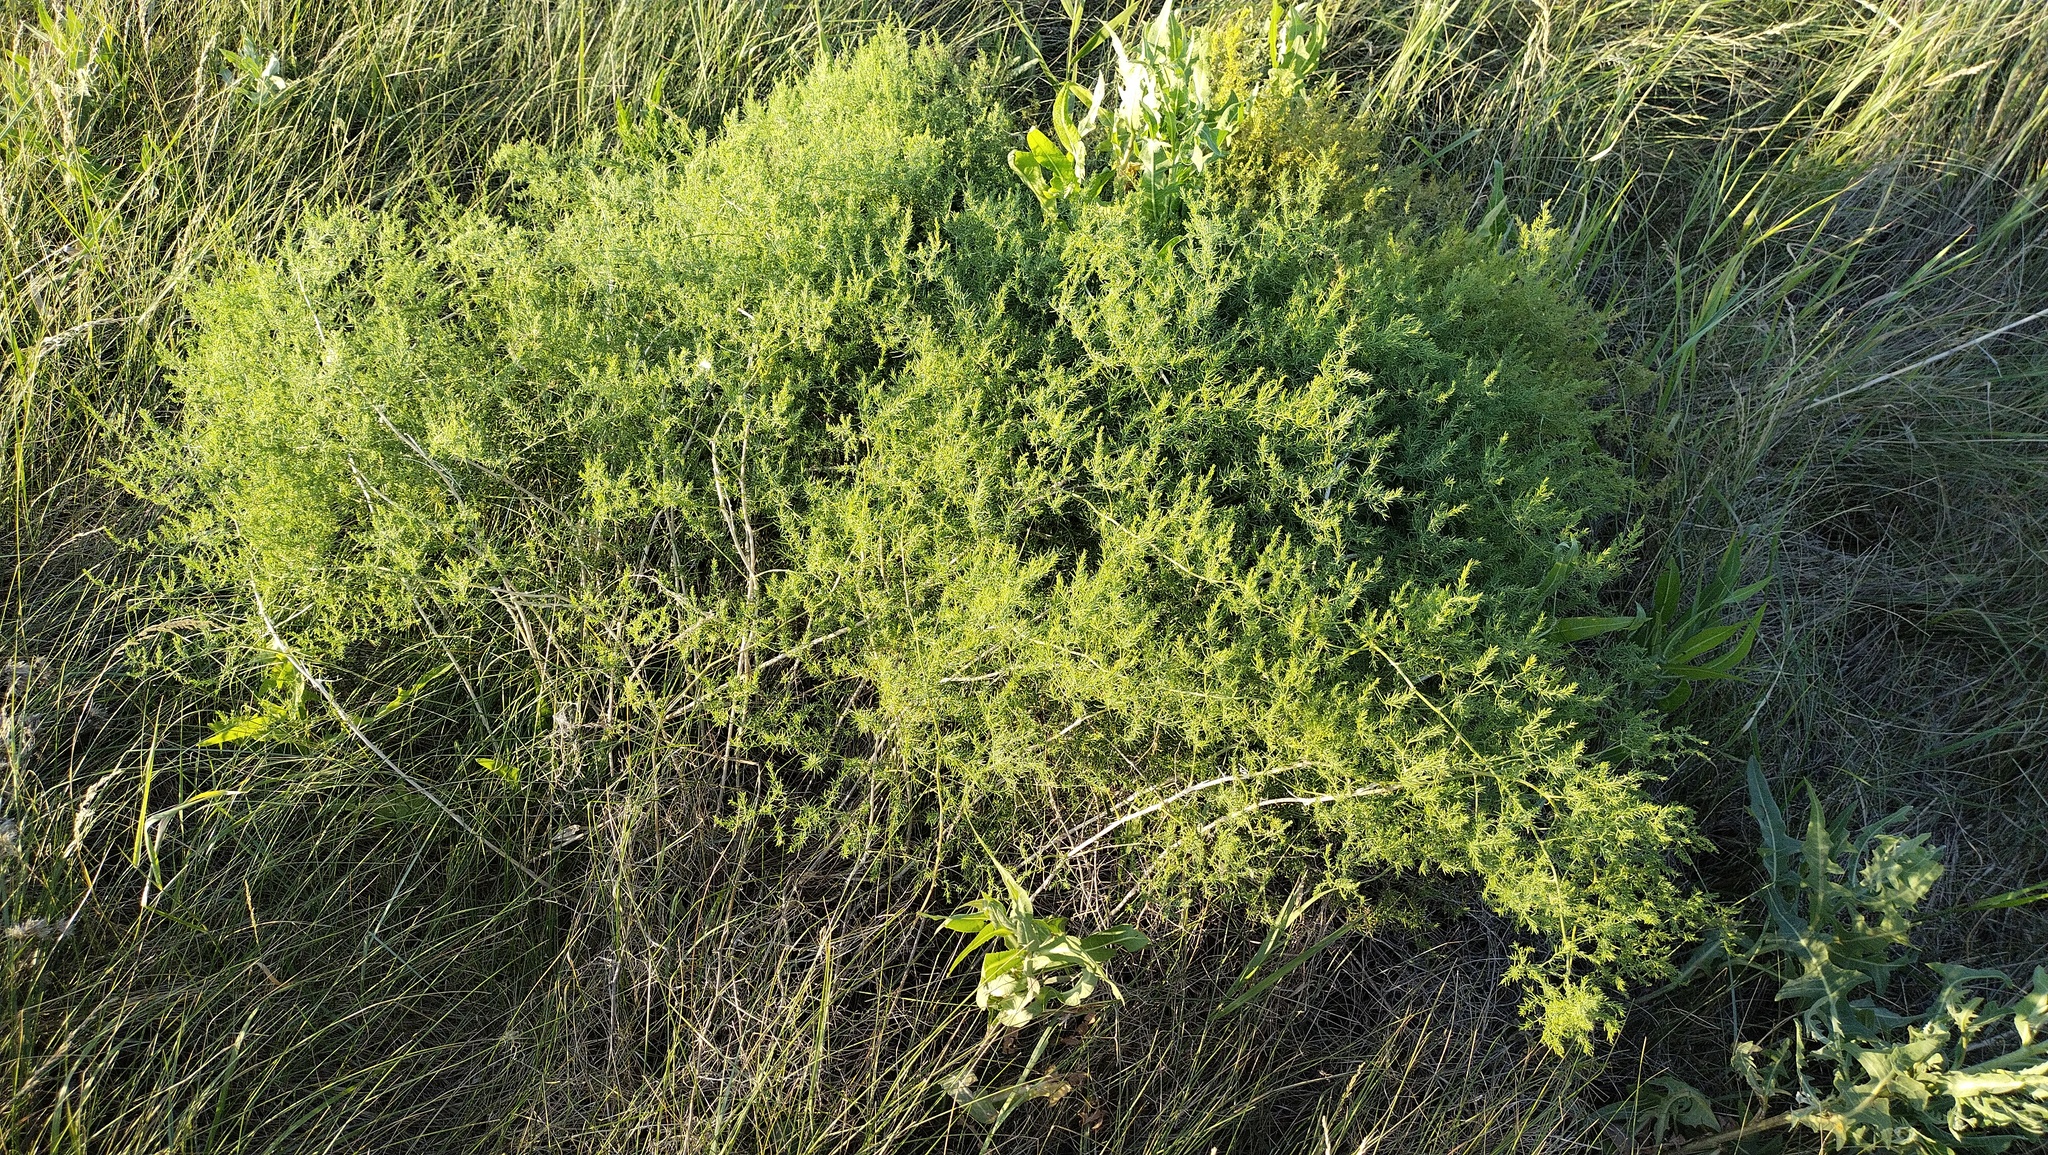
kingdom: Plantae
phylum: Tracheophyta
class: Liliopsida
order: Asparagales
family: Asparagaceae
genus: Asparagus
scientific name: Asparagus pallasii
